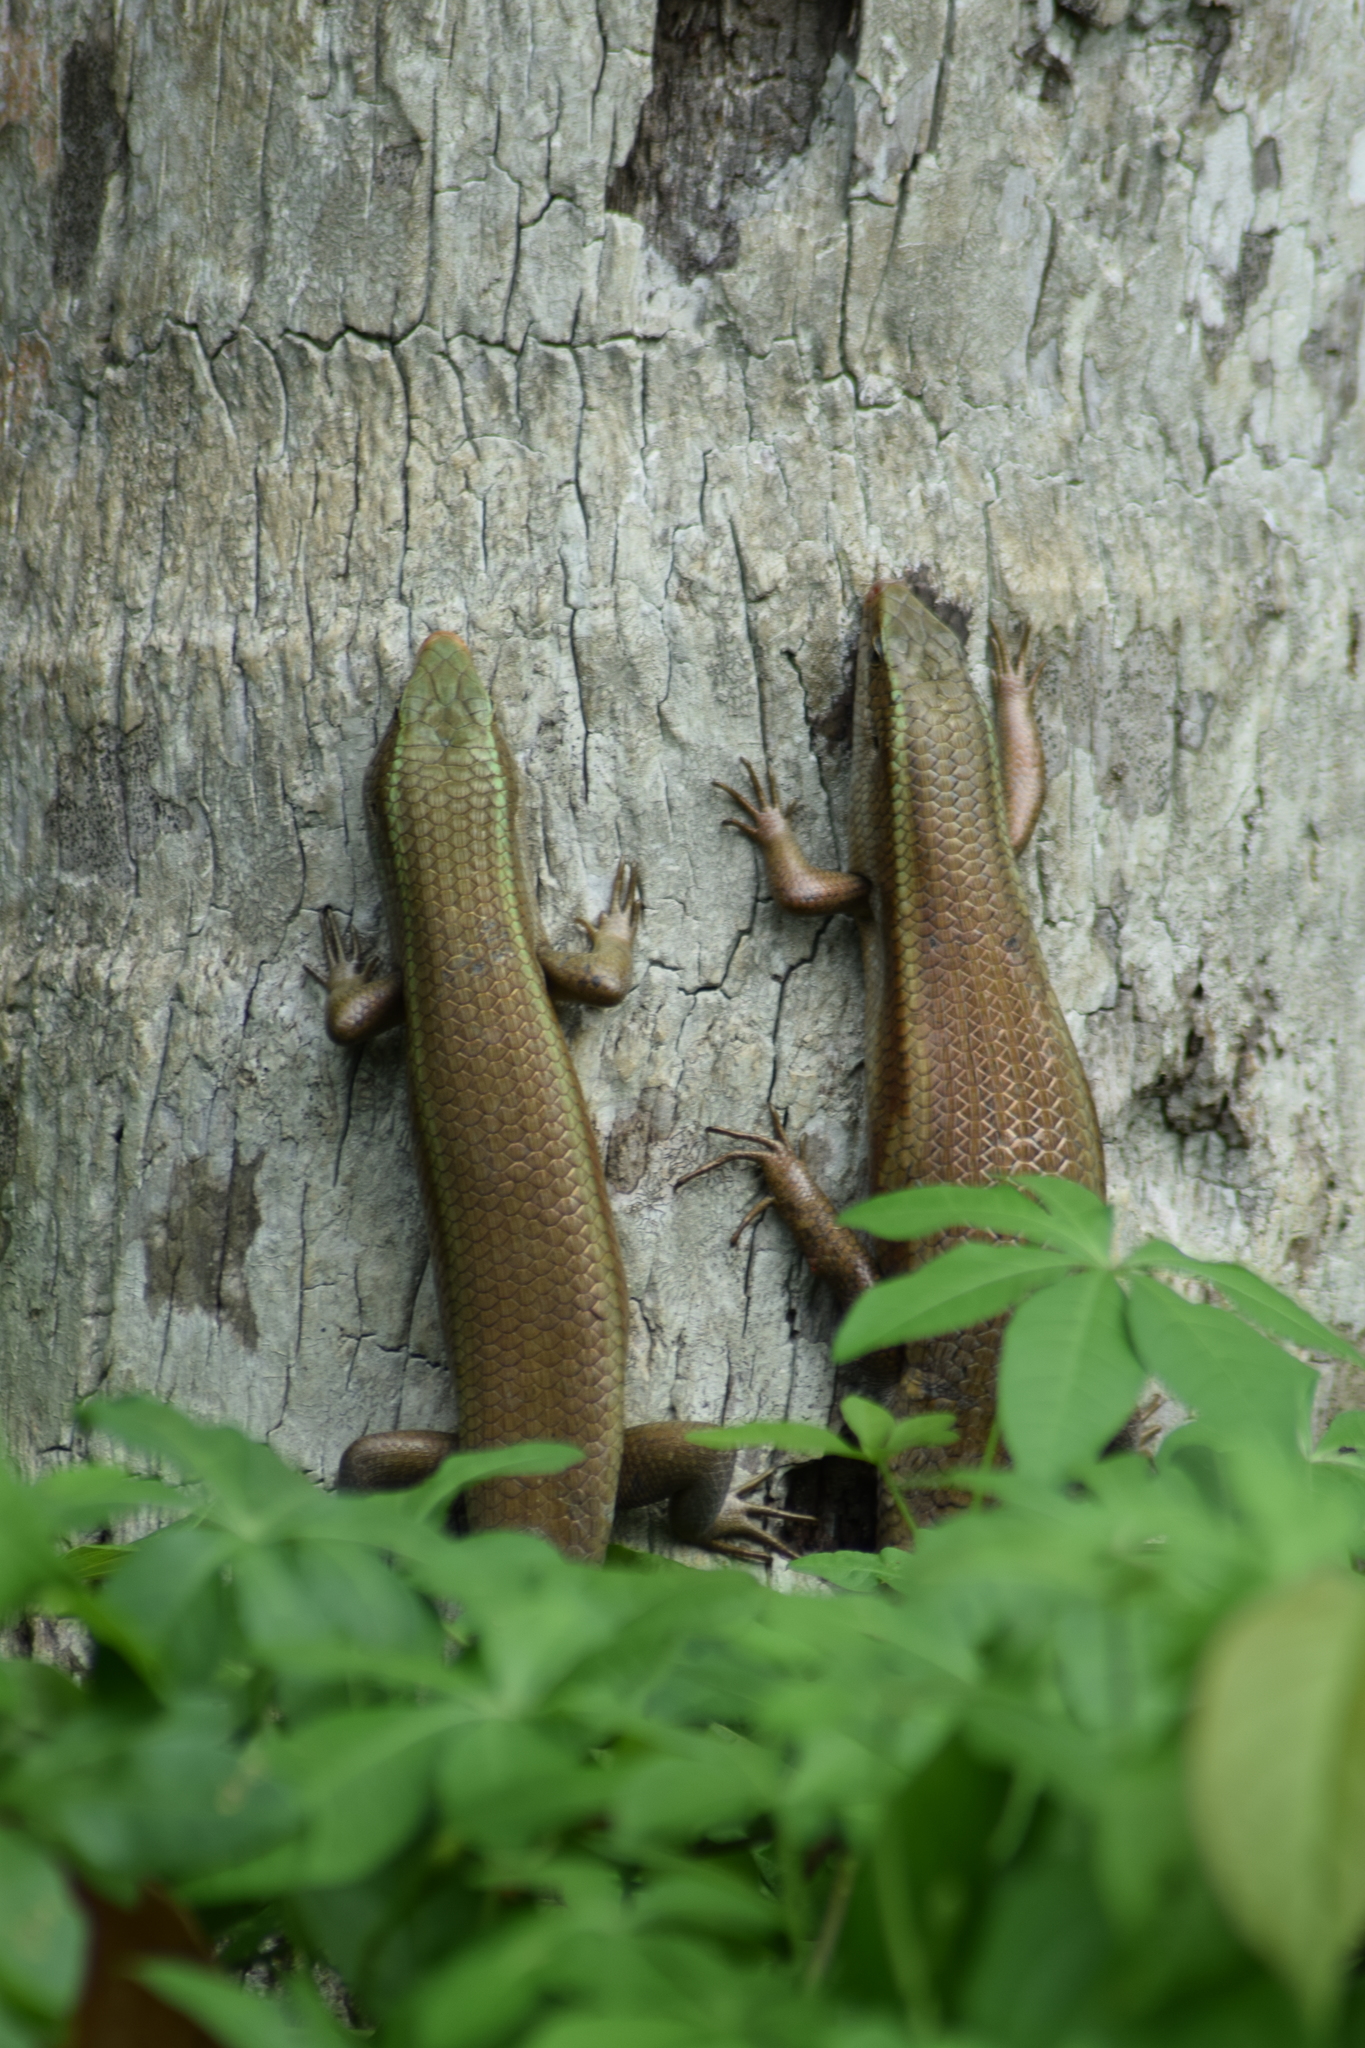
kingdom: Animalia
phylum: Chordata
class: Squamata
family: Scincidae
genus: Eutropis
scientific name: Eutropis carinata
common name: Keeled indian mabuya
